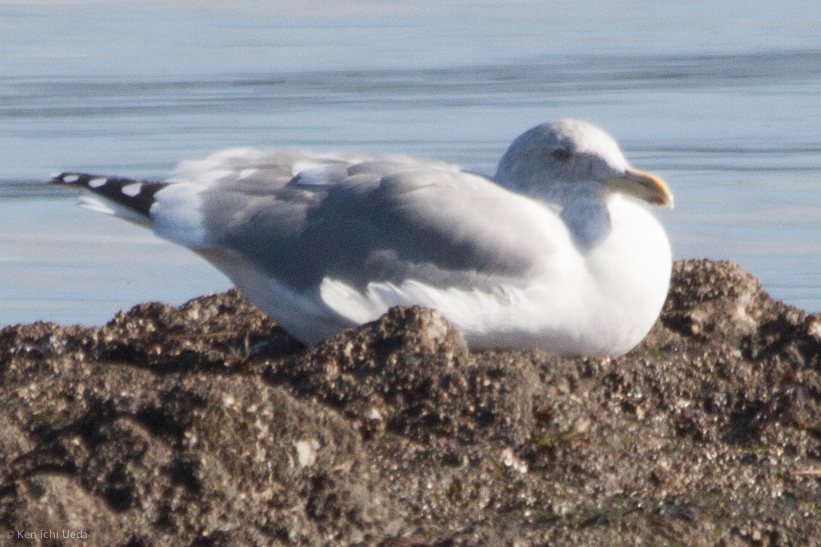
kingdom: Animalia
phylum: Chordata
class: Aves
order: Charadriiformes
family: Laridae
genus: Larus
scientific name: Larus
